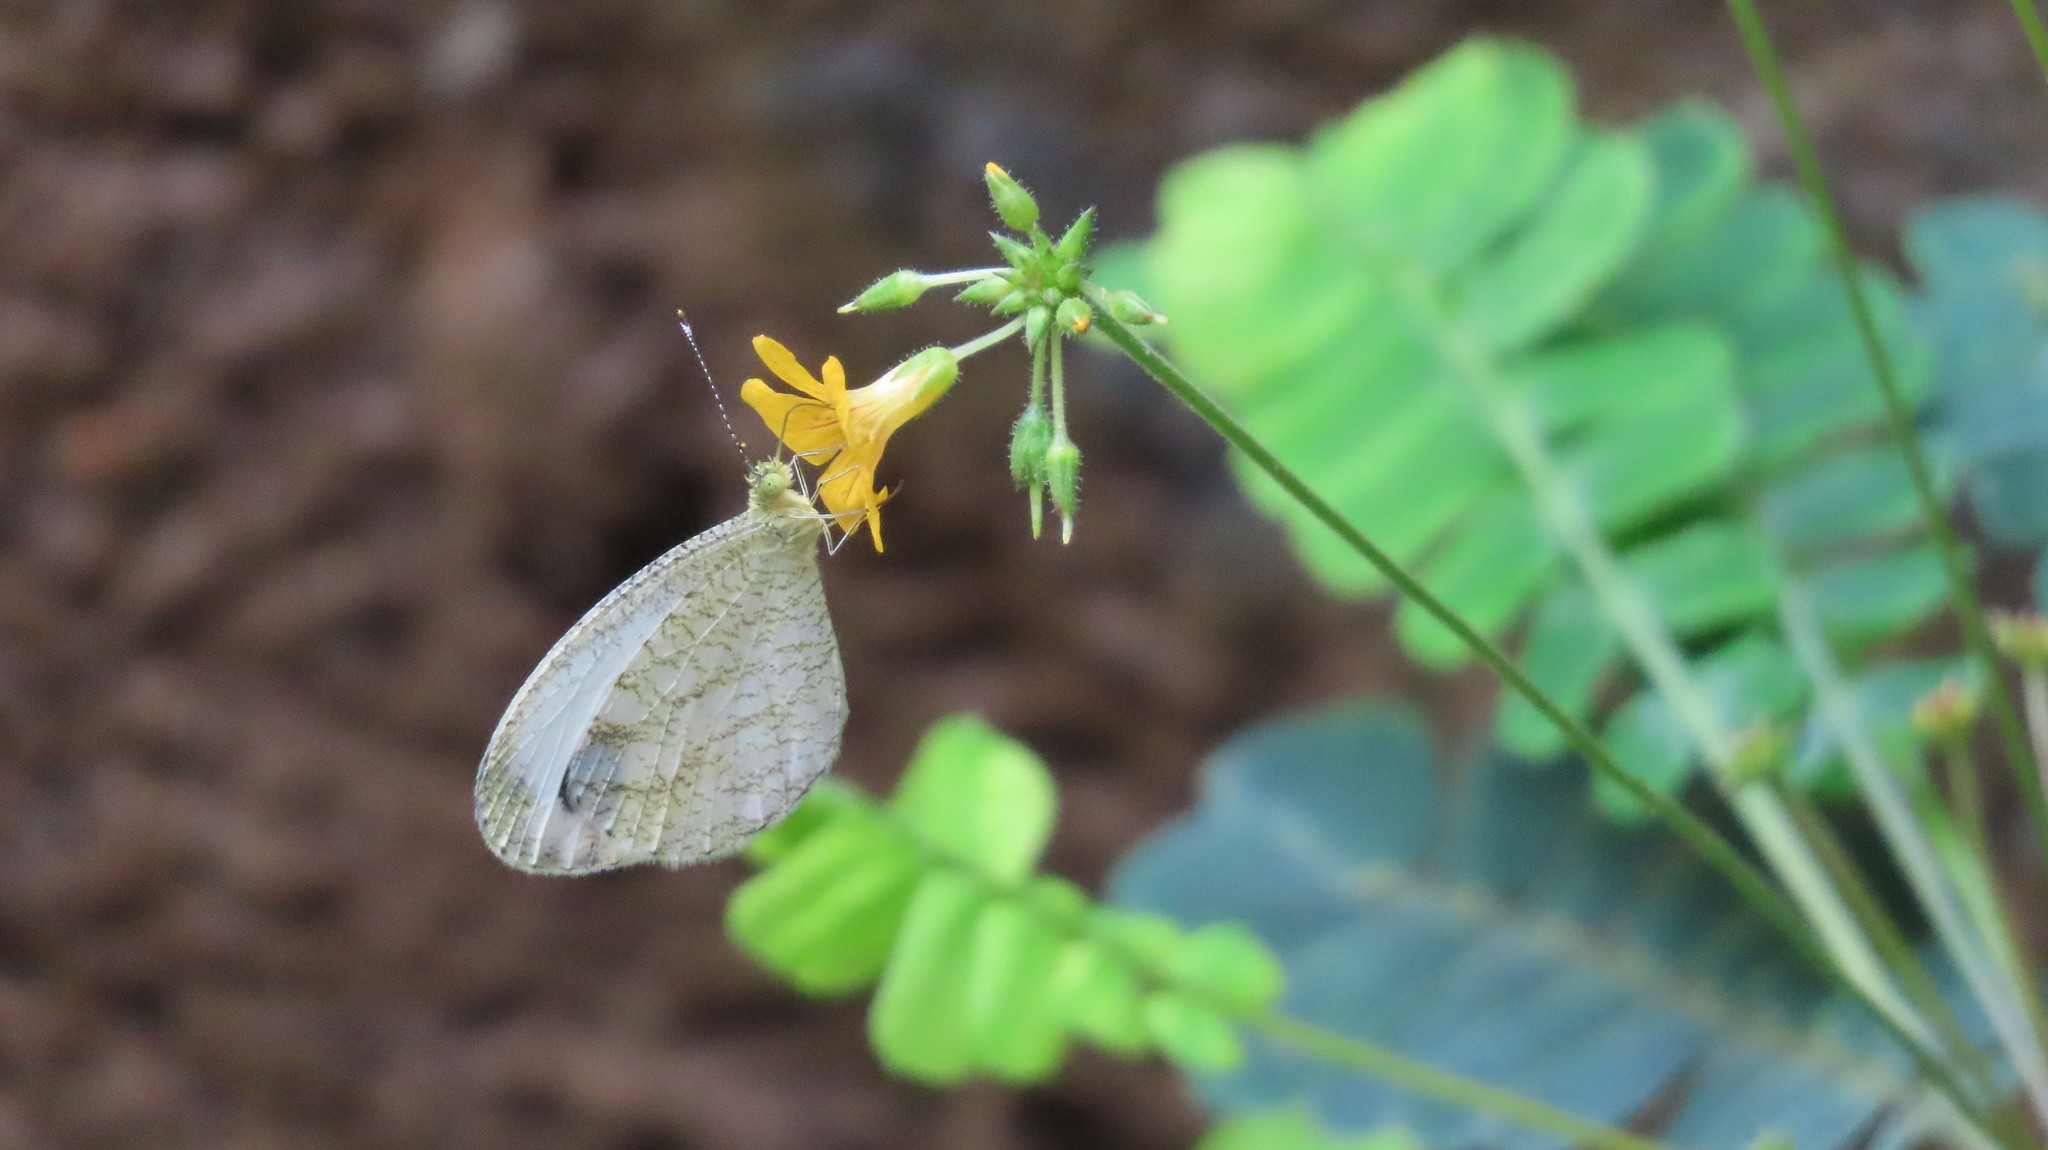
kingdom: Animalia
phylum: Arthropoda
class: Insecta
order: Lepidoptera
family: Pieridae
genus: Leptosia
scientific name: Leptosia nina
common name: Psyche
